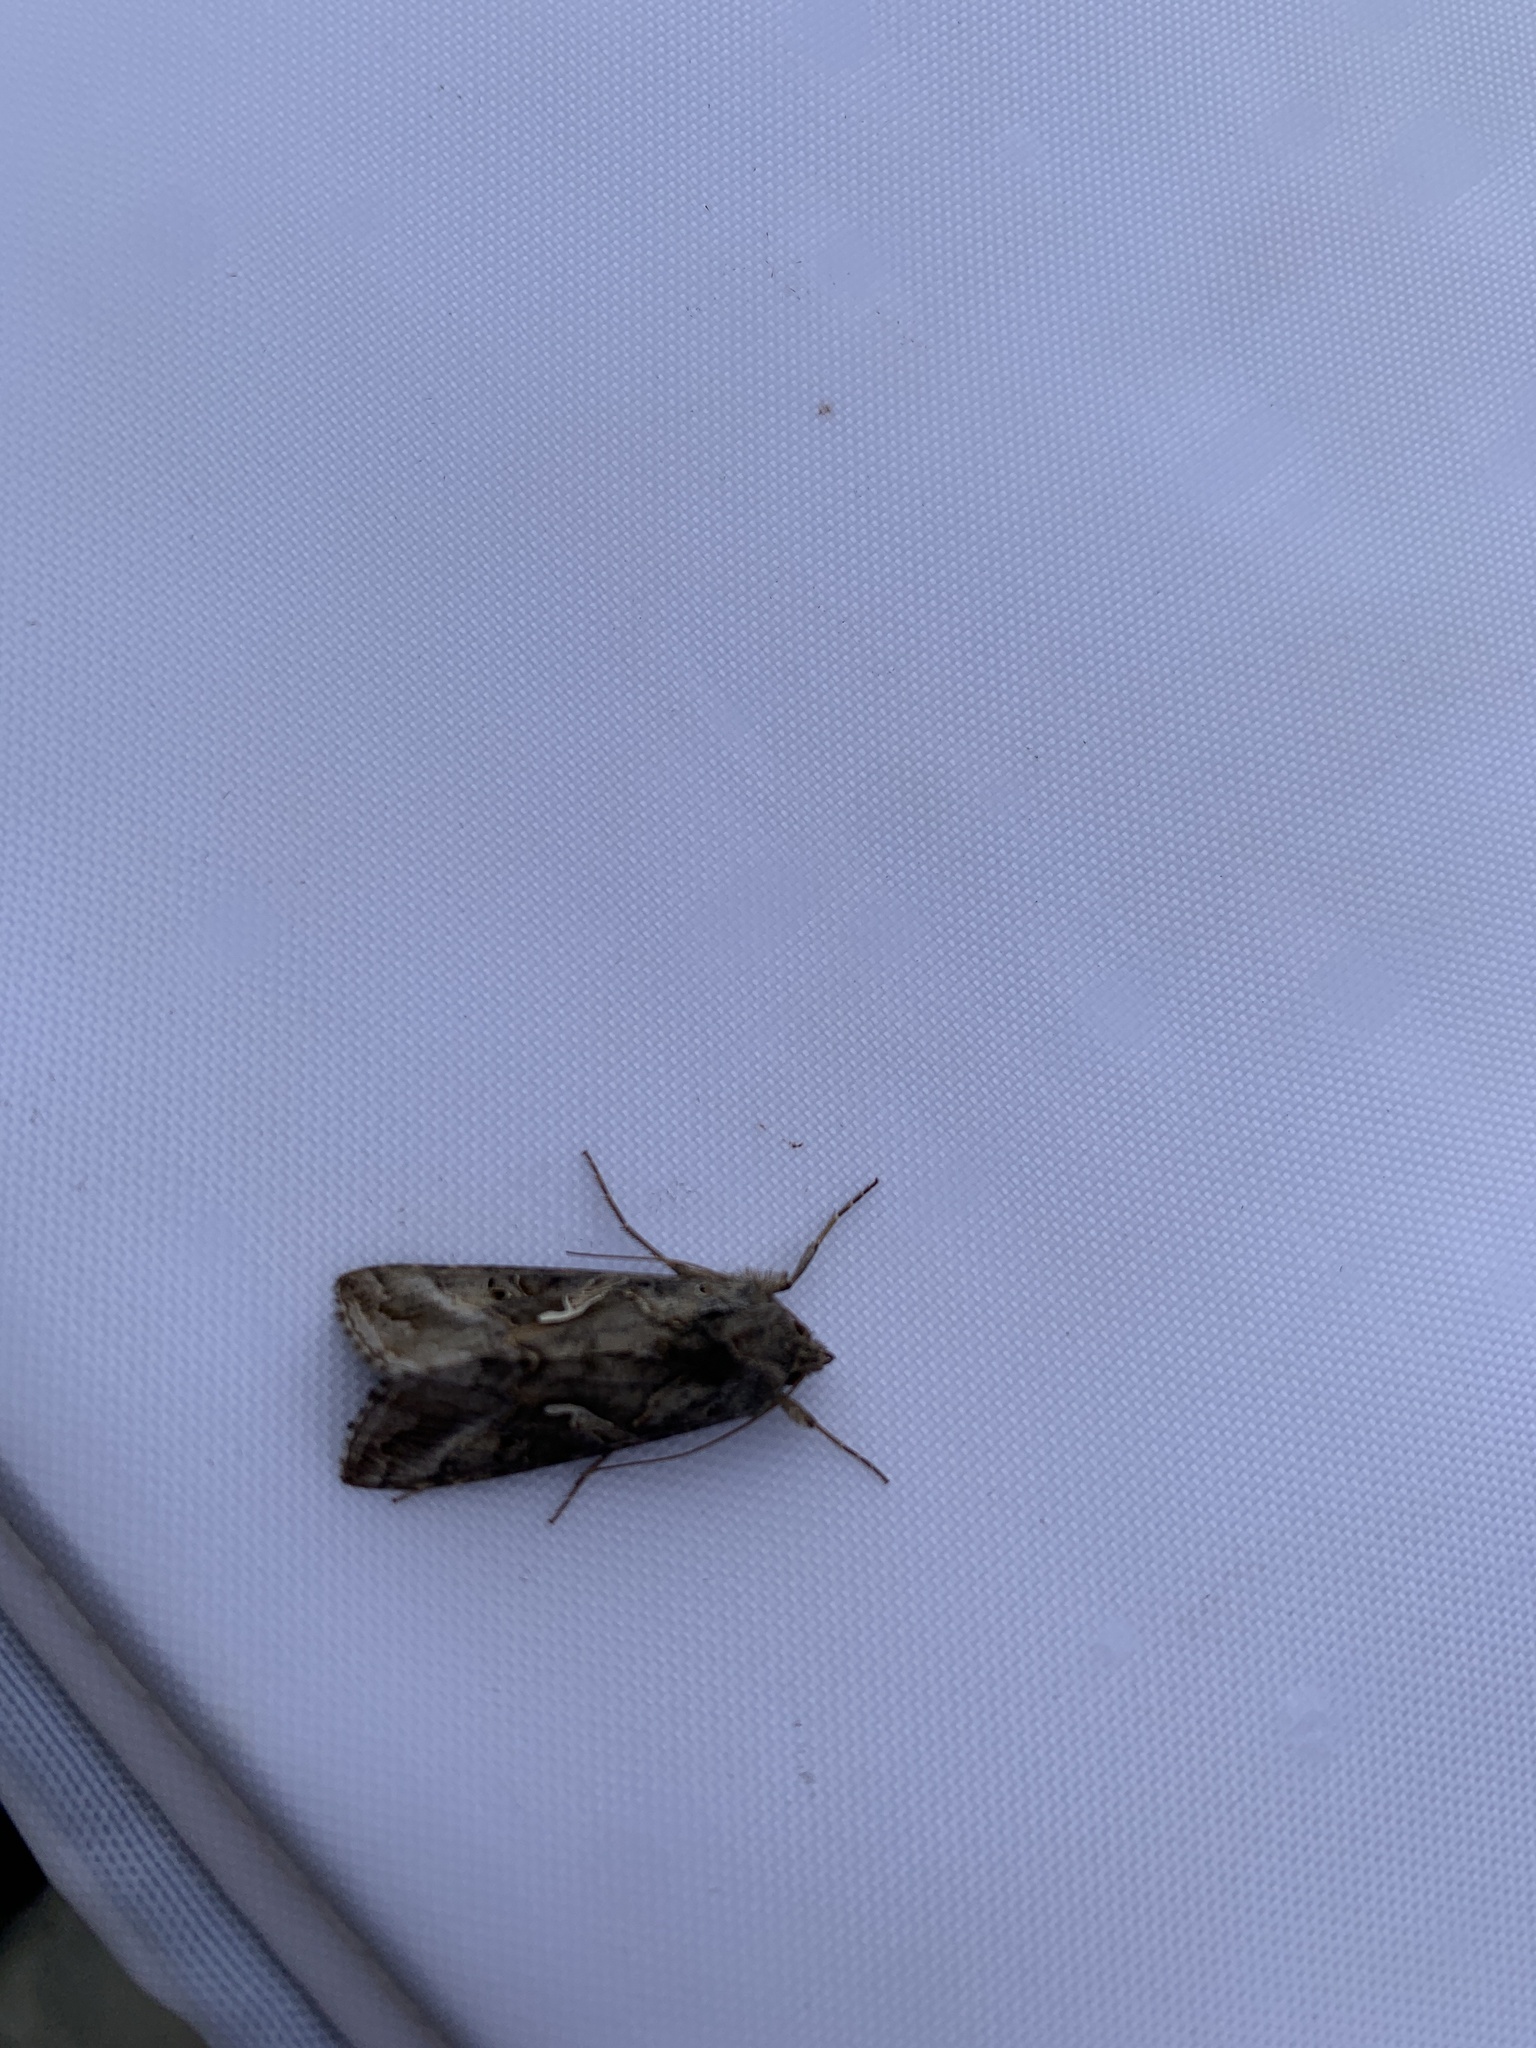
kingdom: Animalia
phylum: Arthropoda
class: Insecta
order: Lepidoptera
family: Noctuidae
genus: Autographa
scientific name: Autographa gamma
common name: Silver y
